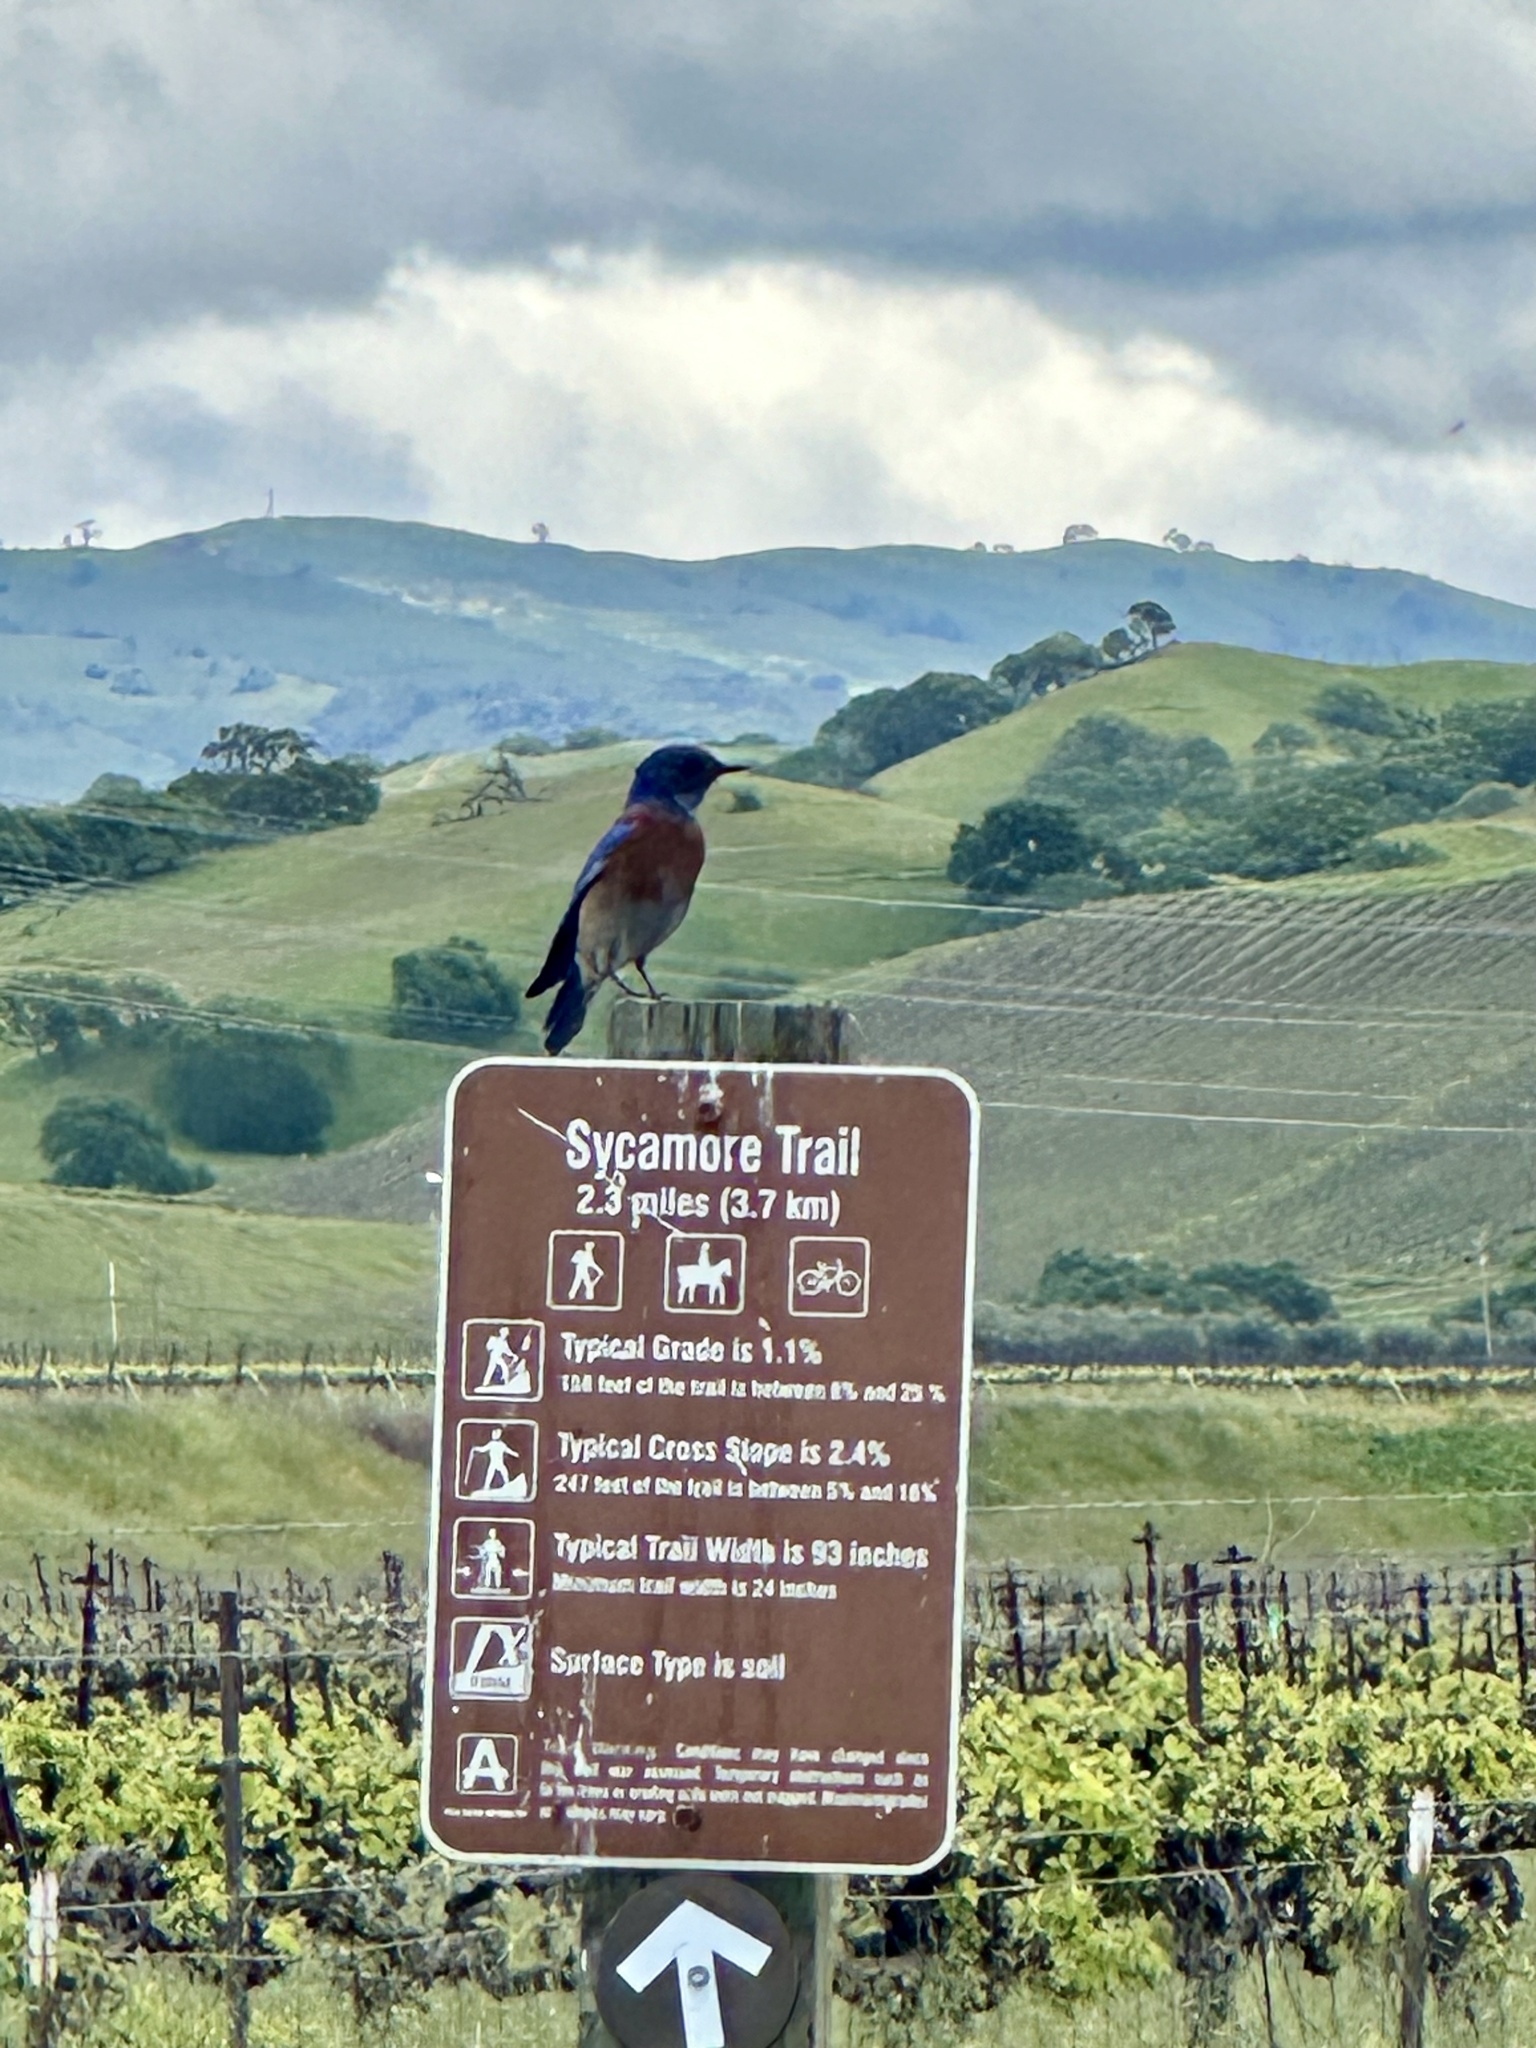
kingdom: Animalia
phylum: Chordata
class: Aves
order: Passeriformes
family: Turdidae
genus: Sialia
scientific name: Sialia mexicana
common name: Western bluebird
